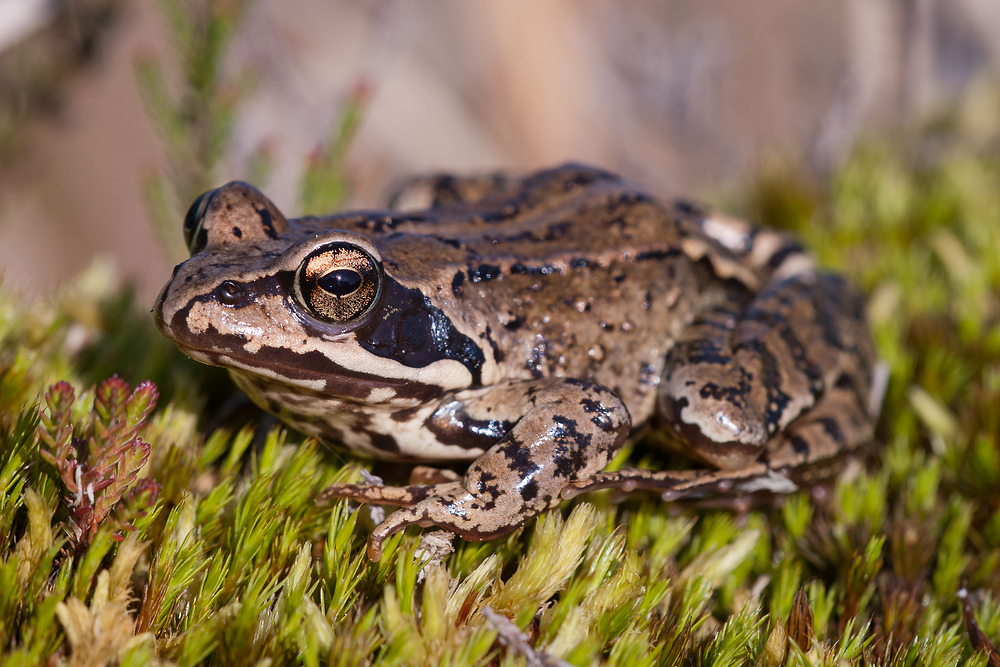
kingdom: Animalia
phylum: Chordata
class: Amphibia
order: Anura
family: Ranidae
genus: Rana
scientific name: Rana temporaria
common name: Common frog
